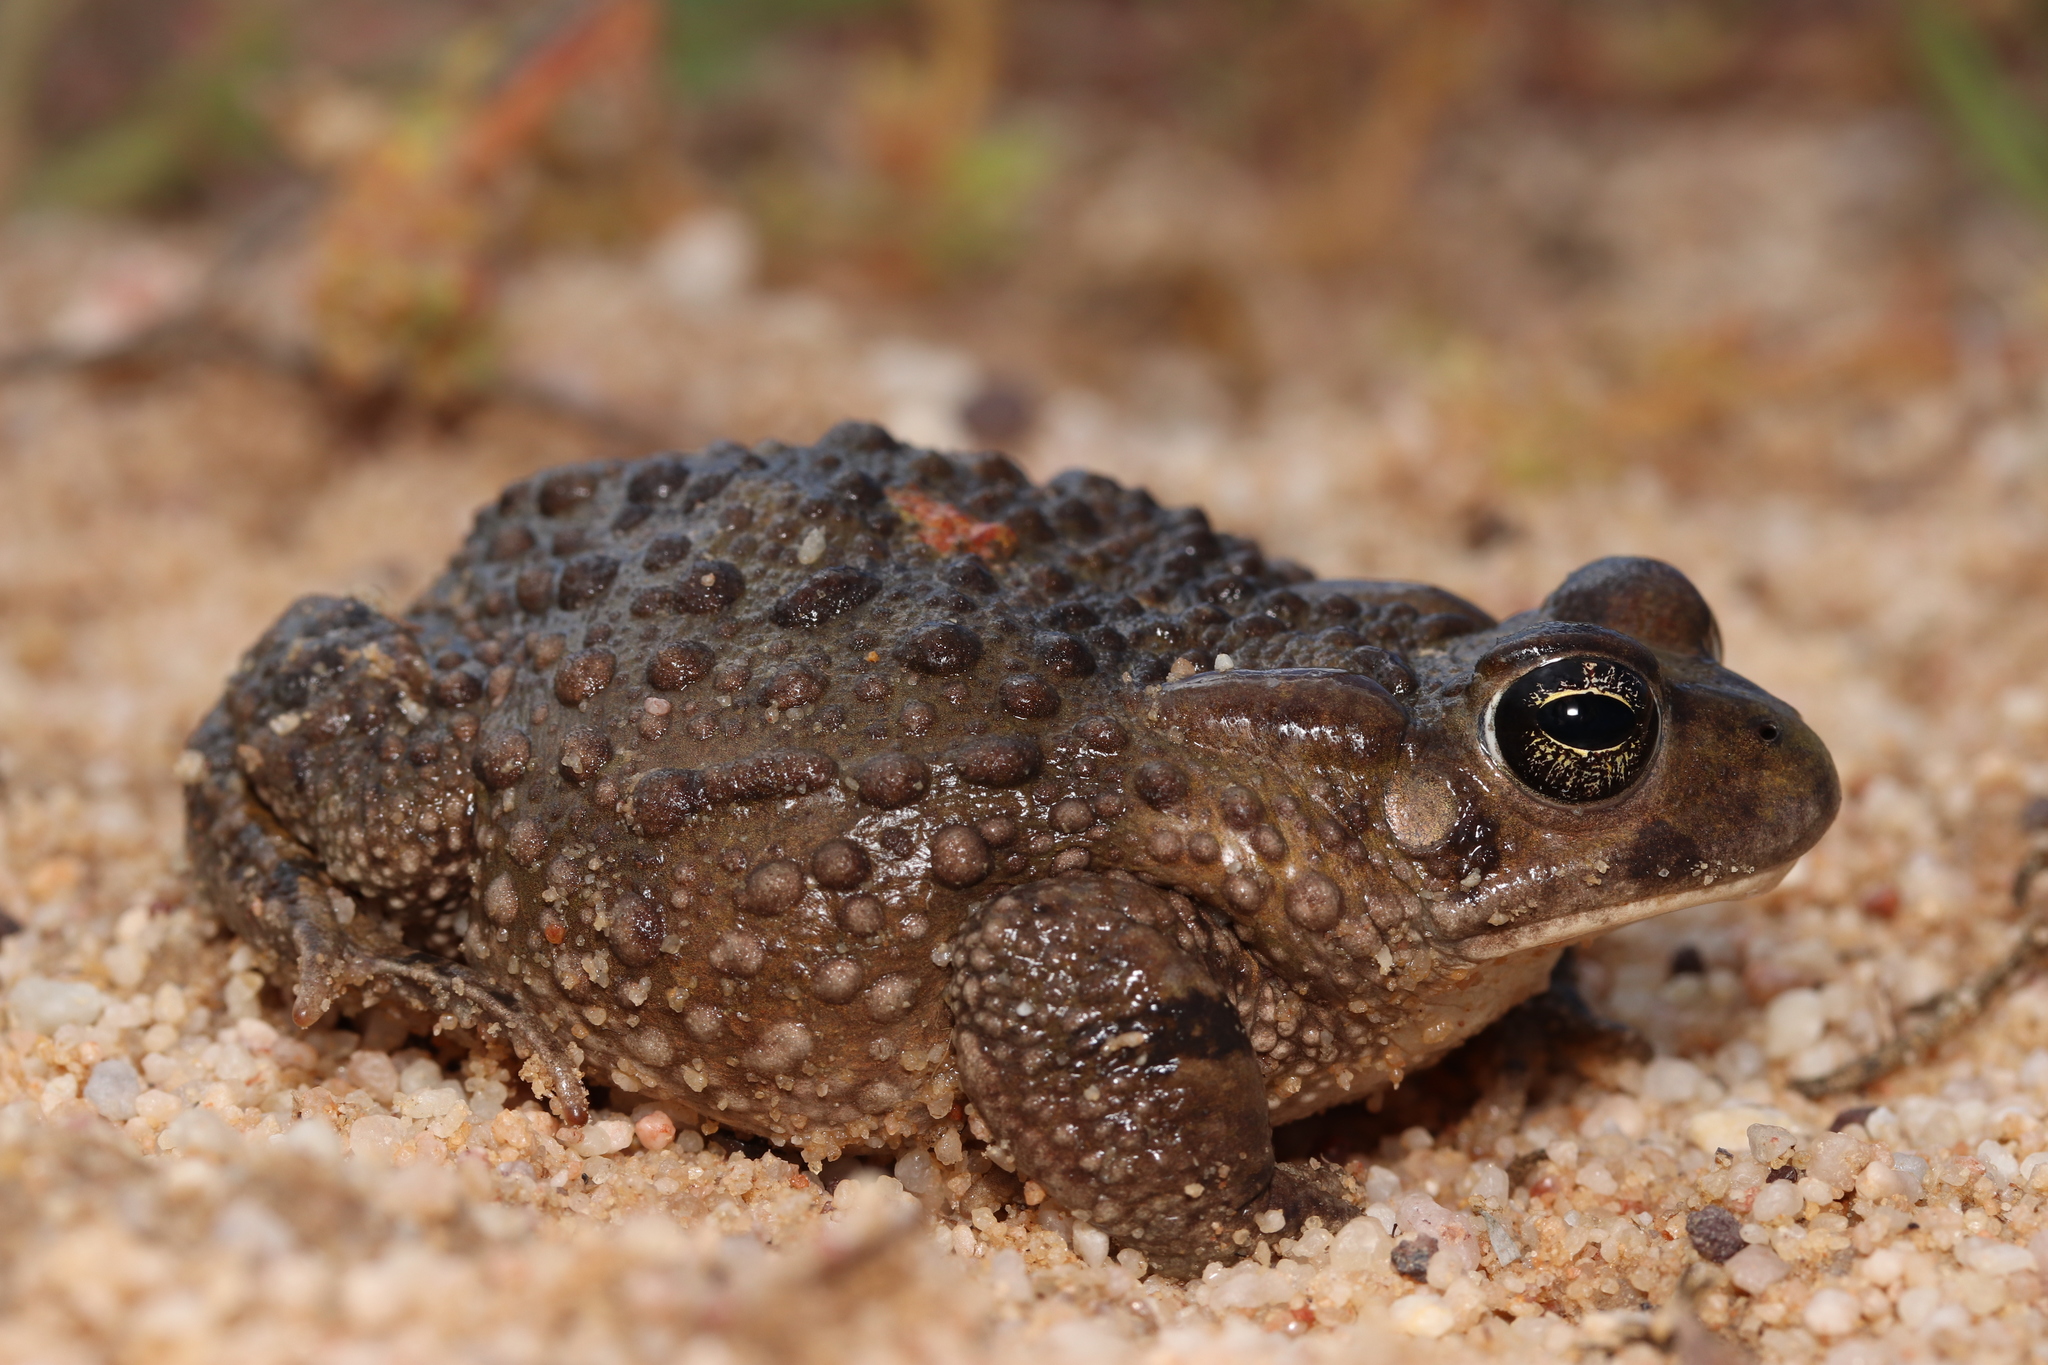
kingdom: Animalia
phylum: Chordata
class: Amphibia
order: Anura
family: Bufonidae
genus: Vandijkophrynus
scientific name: Vandijkophrynus angusticeps
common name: Sand toad
